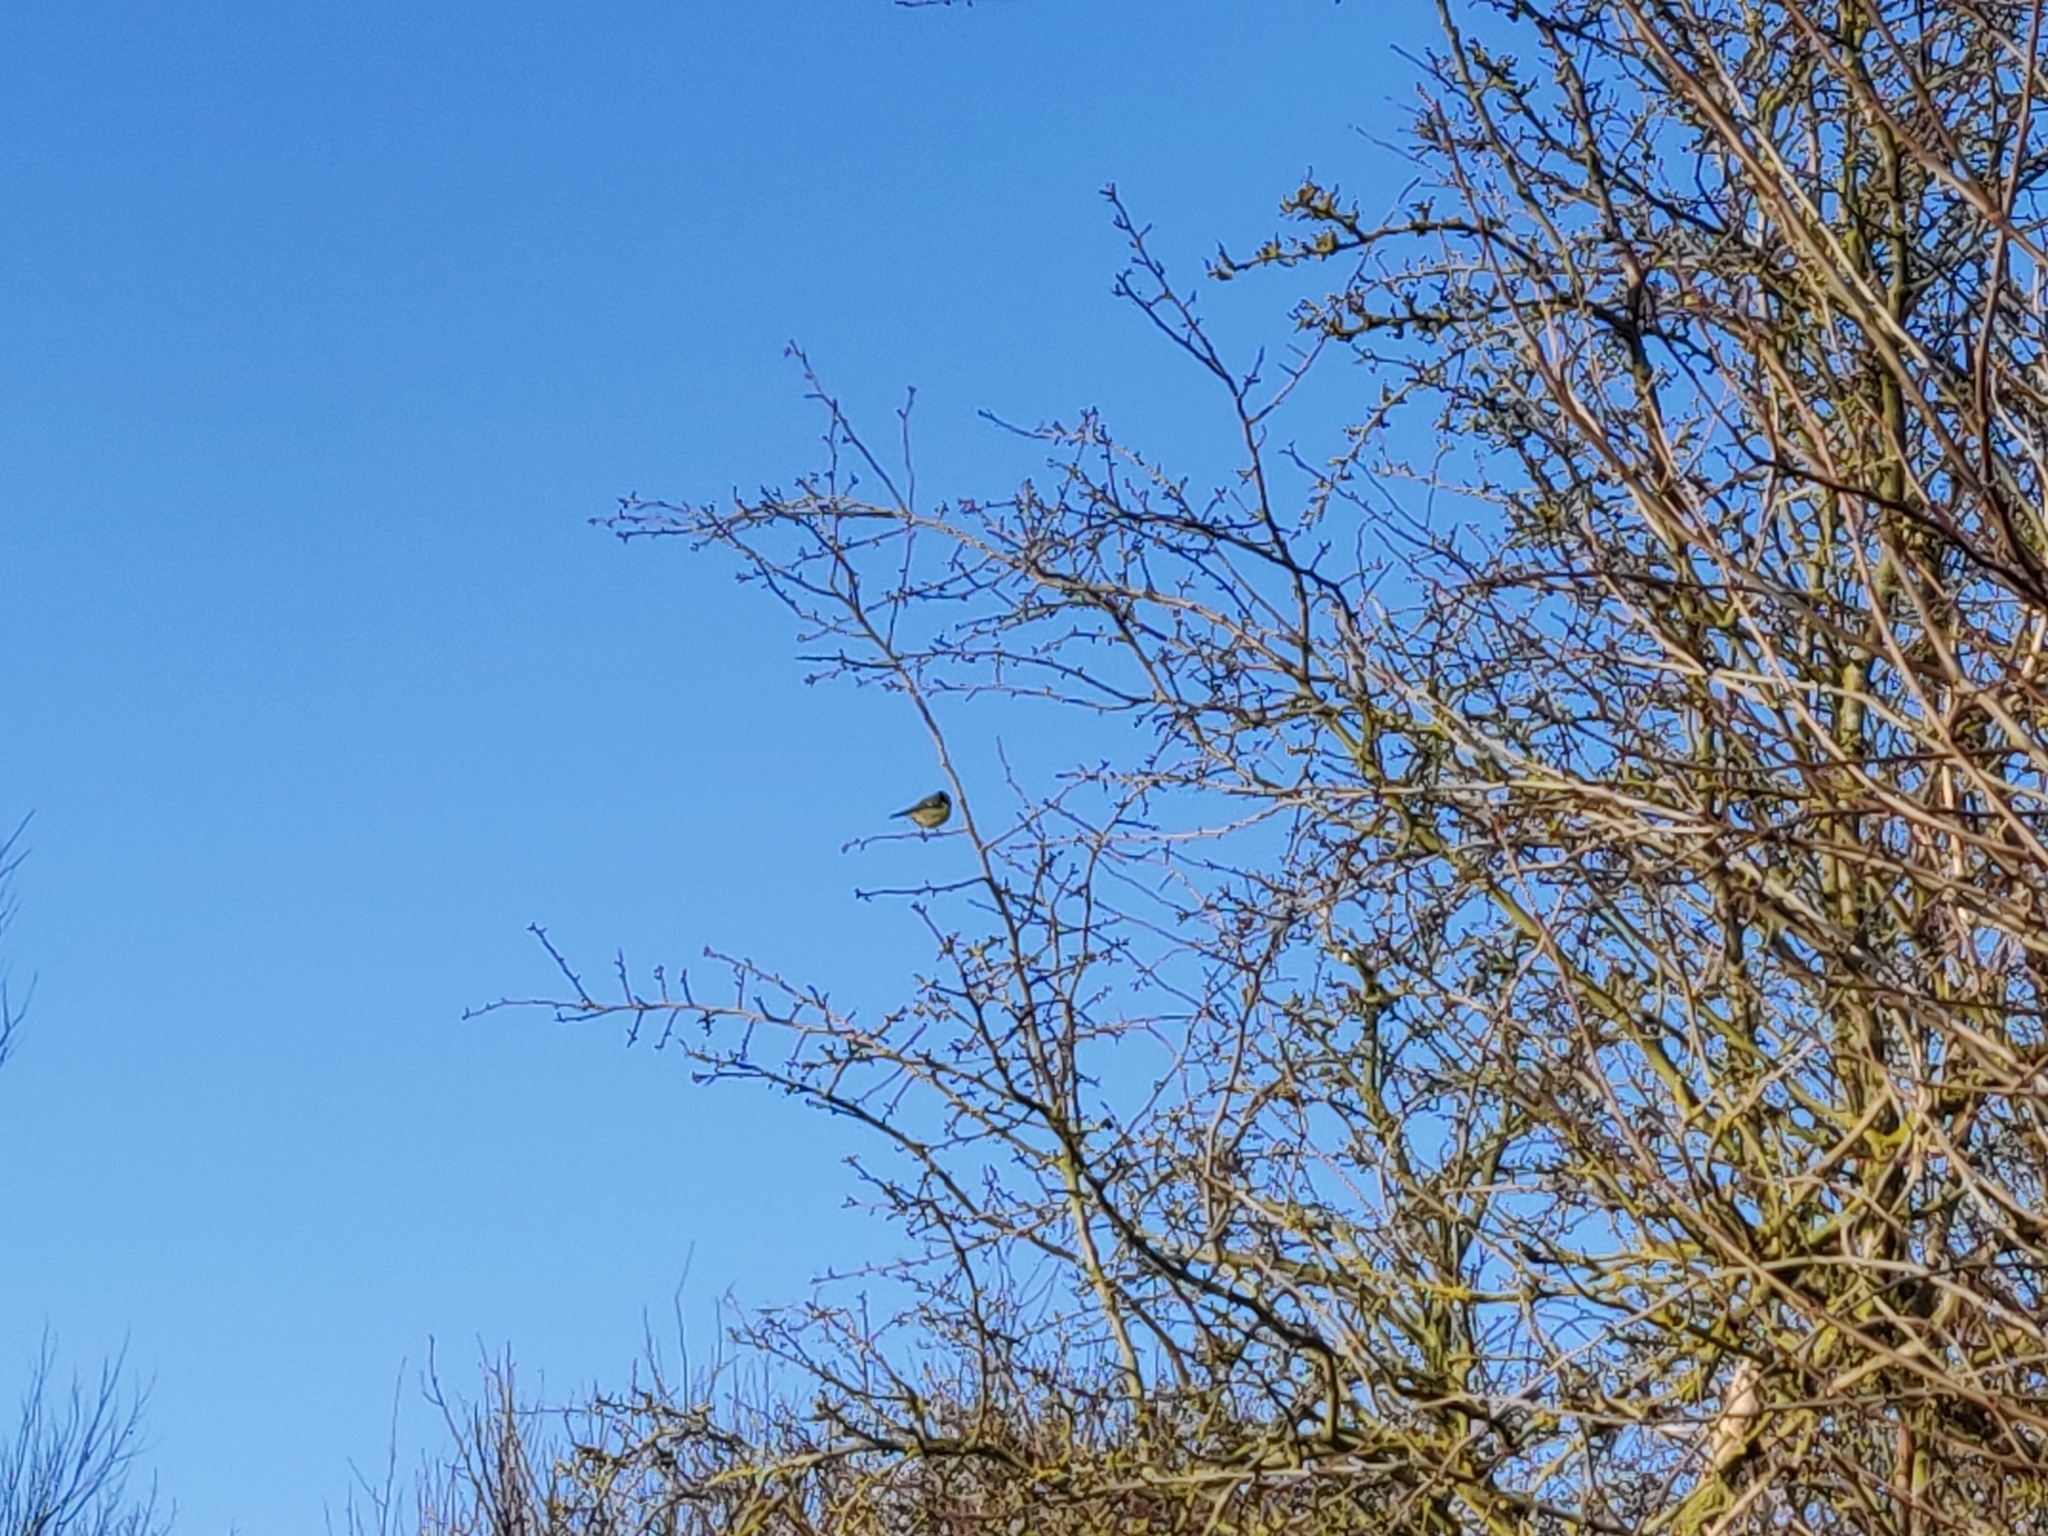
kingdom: Animalia
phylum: Chordata
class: Aves
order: Passeriformes
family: Paridae
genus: Cyanistes
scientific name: Cyanistes caeruleus
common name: Eurasian blue tit
